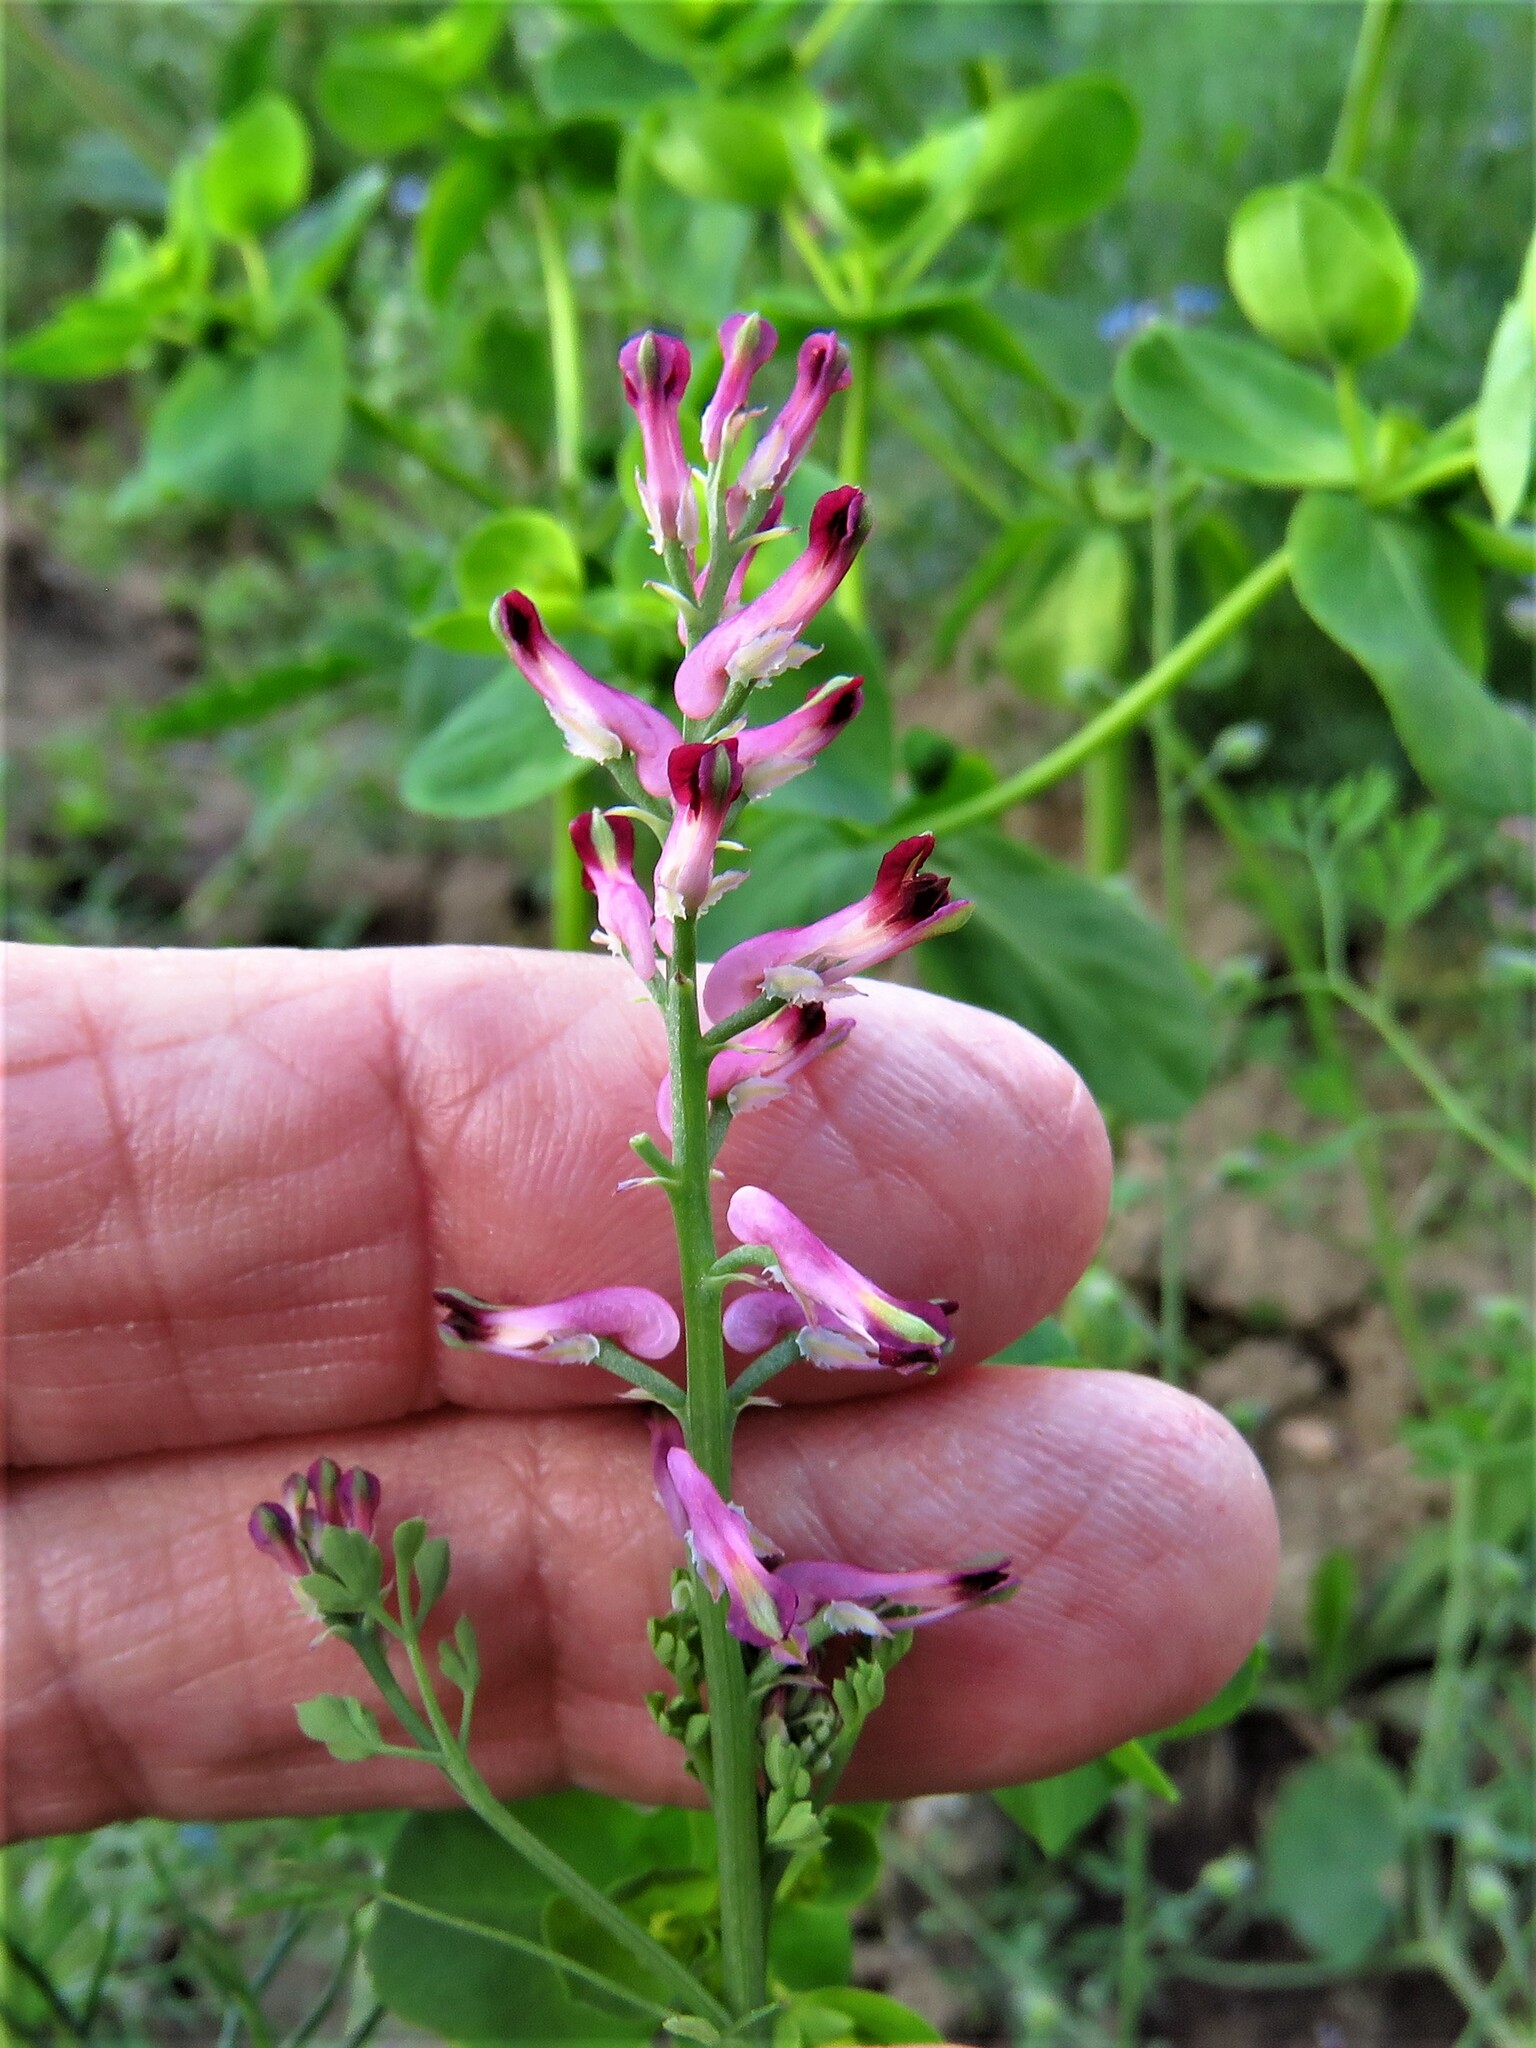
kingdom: Plantae
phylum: Tracheophyta
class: Magnoliopsida
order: Ranunculales
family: Papaveraceae
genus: Fumaria
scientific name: Fumaria officinalis
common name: Common fumitory
